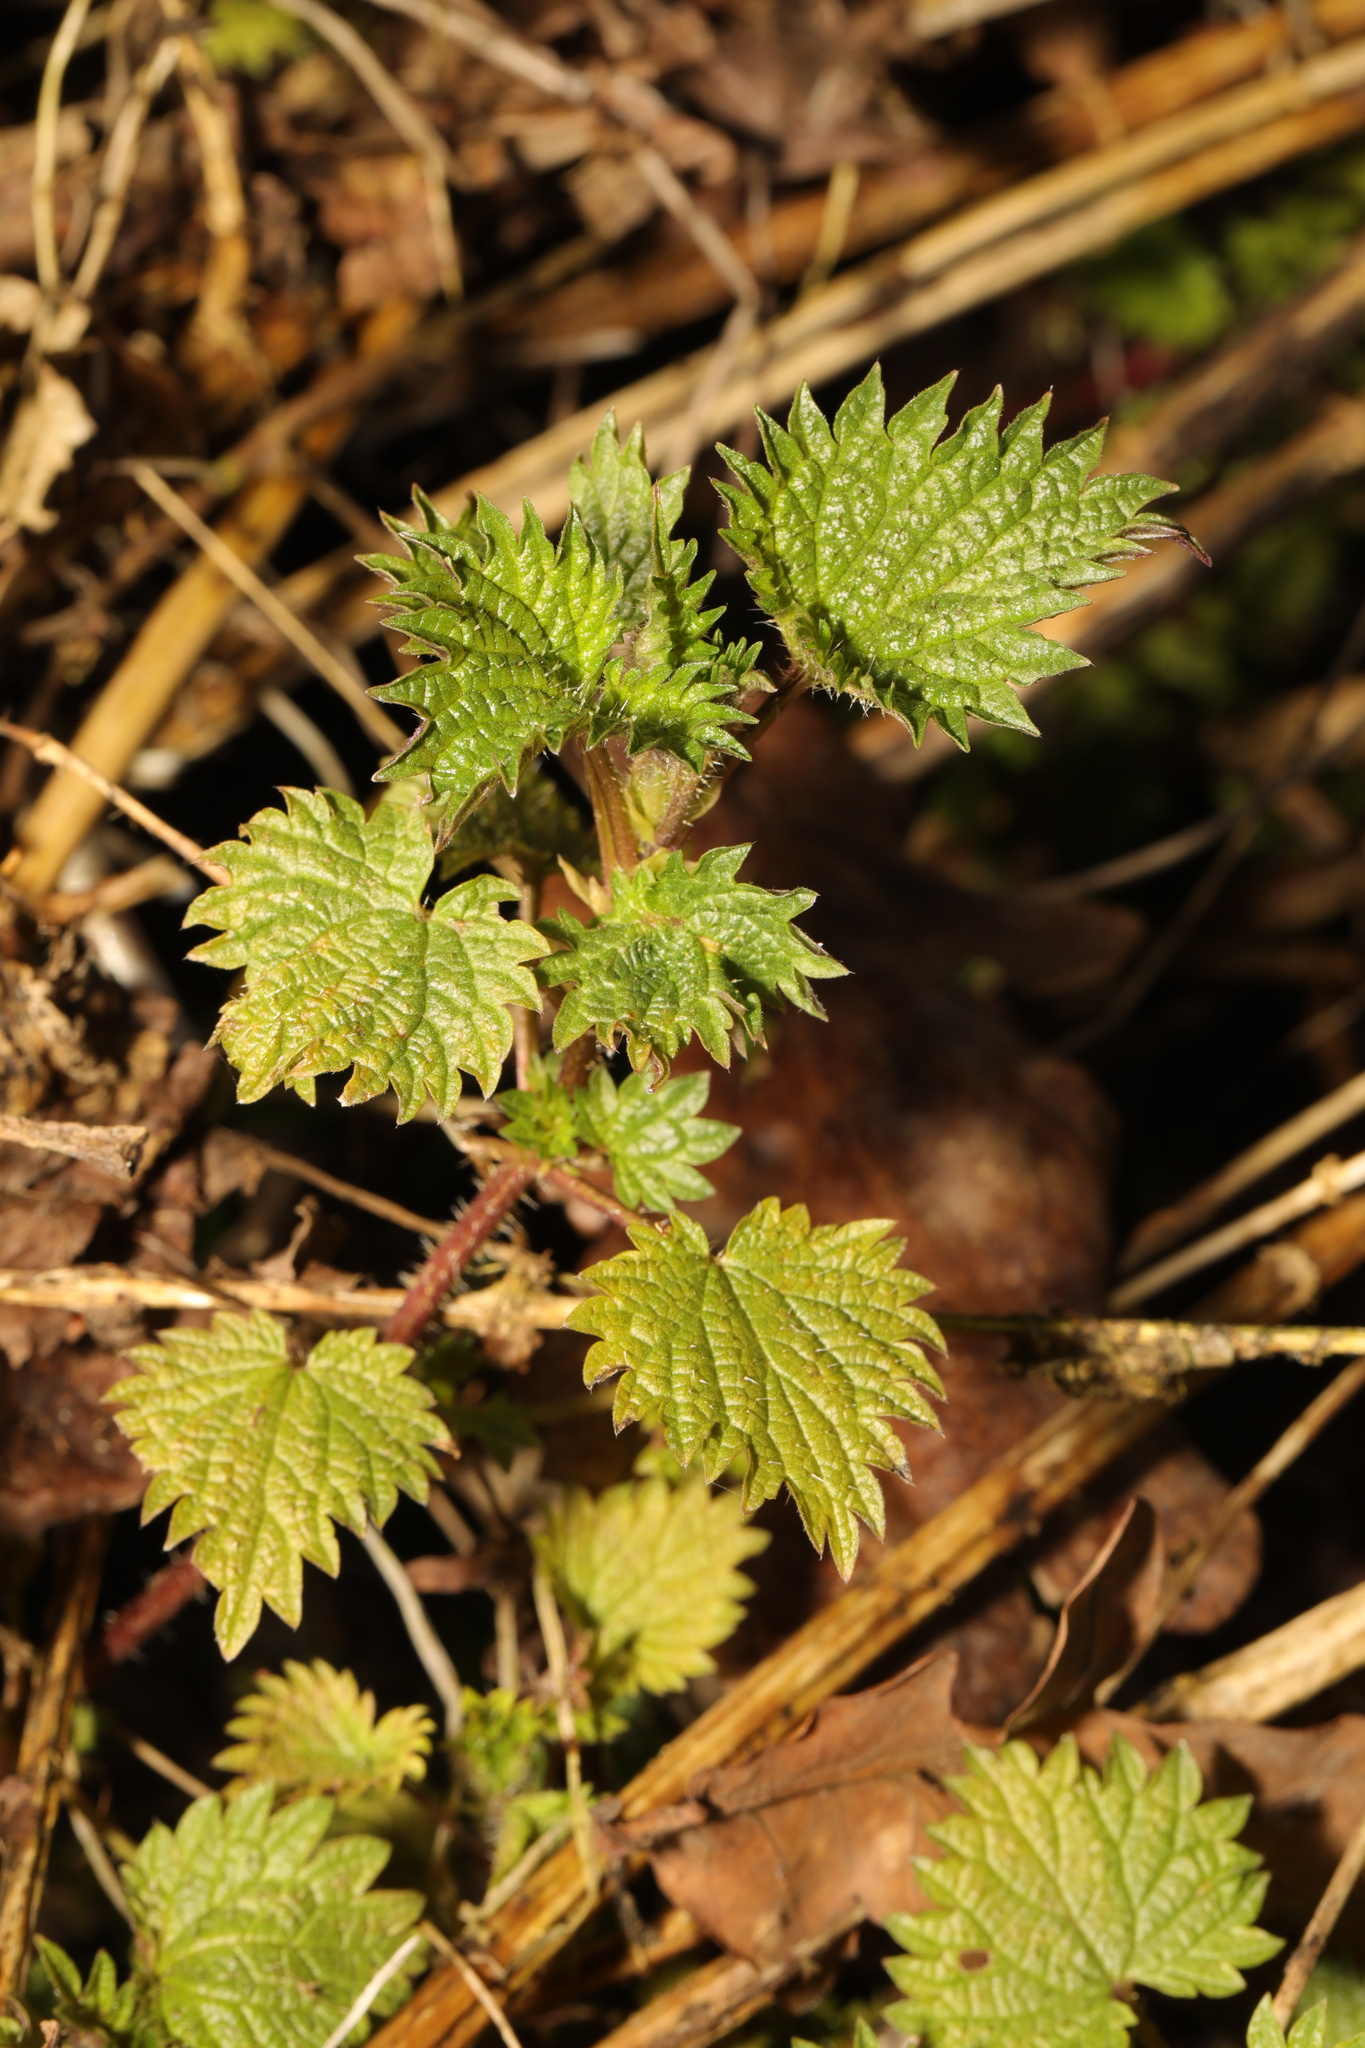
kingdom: Plantae
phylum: Tracheophyta
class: Magnoliopsida
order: Rosales
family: Urticaceae
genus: Urtica
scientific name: Urtica dioica
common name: Common nettle
